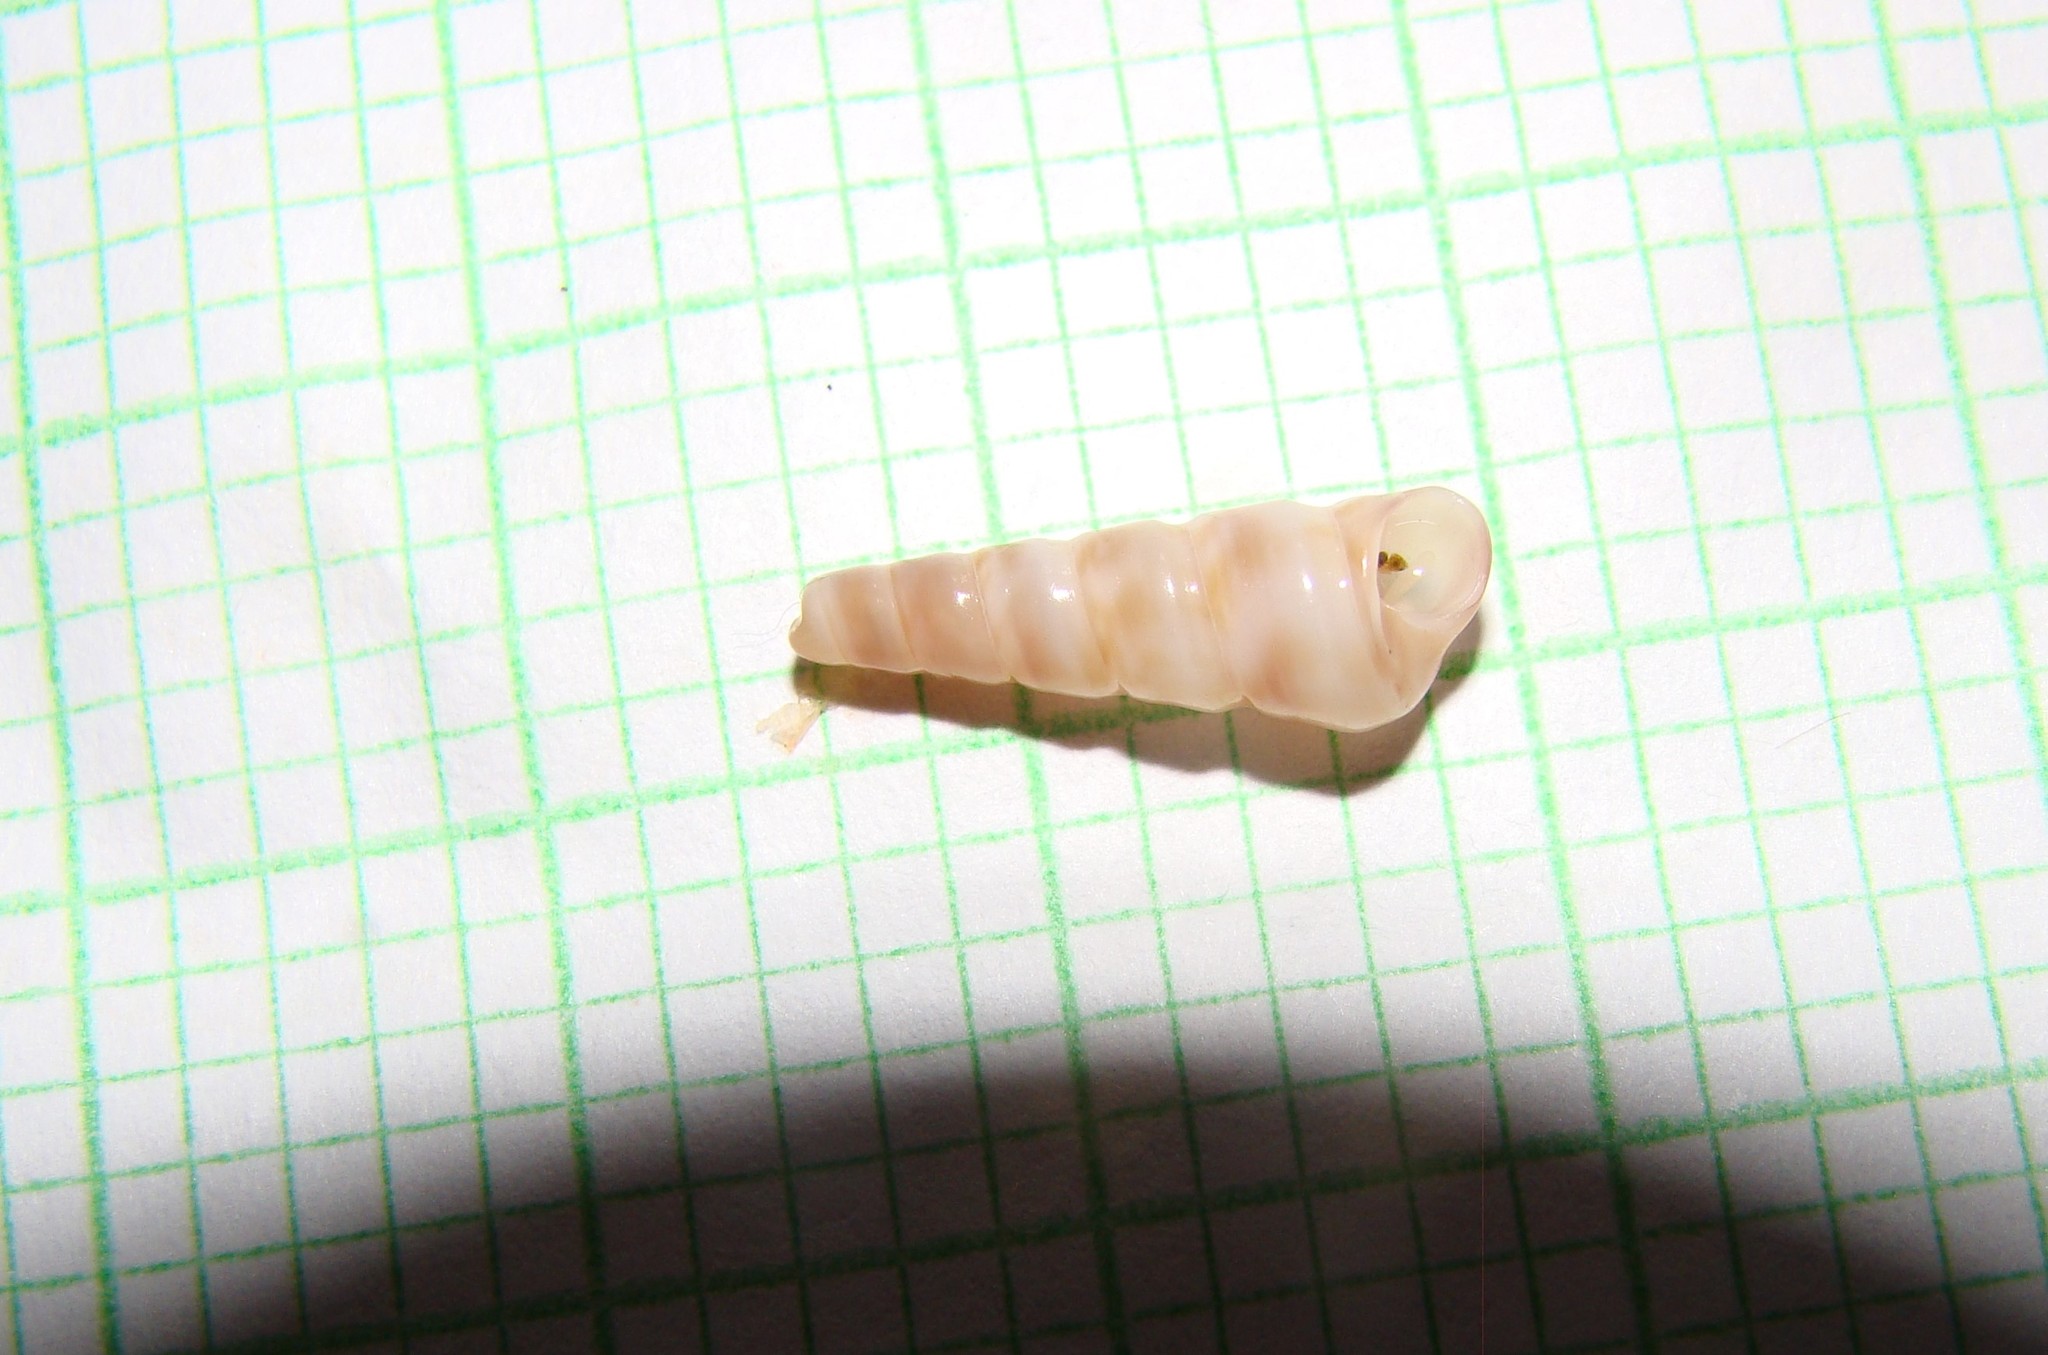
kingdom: Animalia
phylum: Mollusca
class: Gastropoda
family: Turritellidae
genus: Stiracolpus
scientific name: Stiracolpus pagoda
